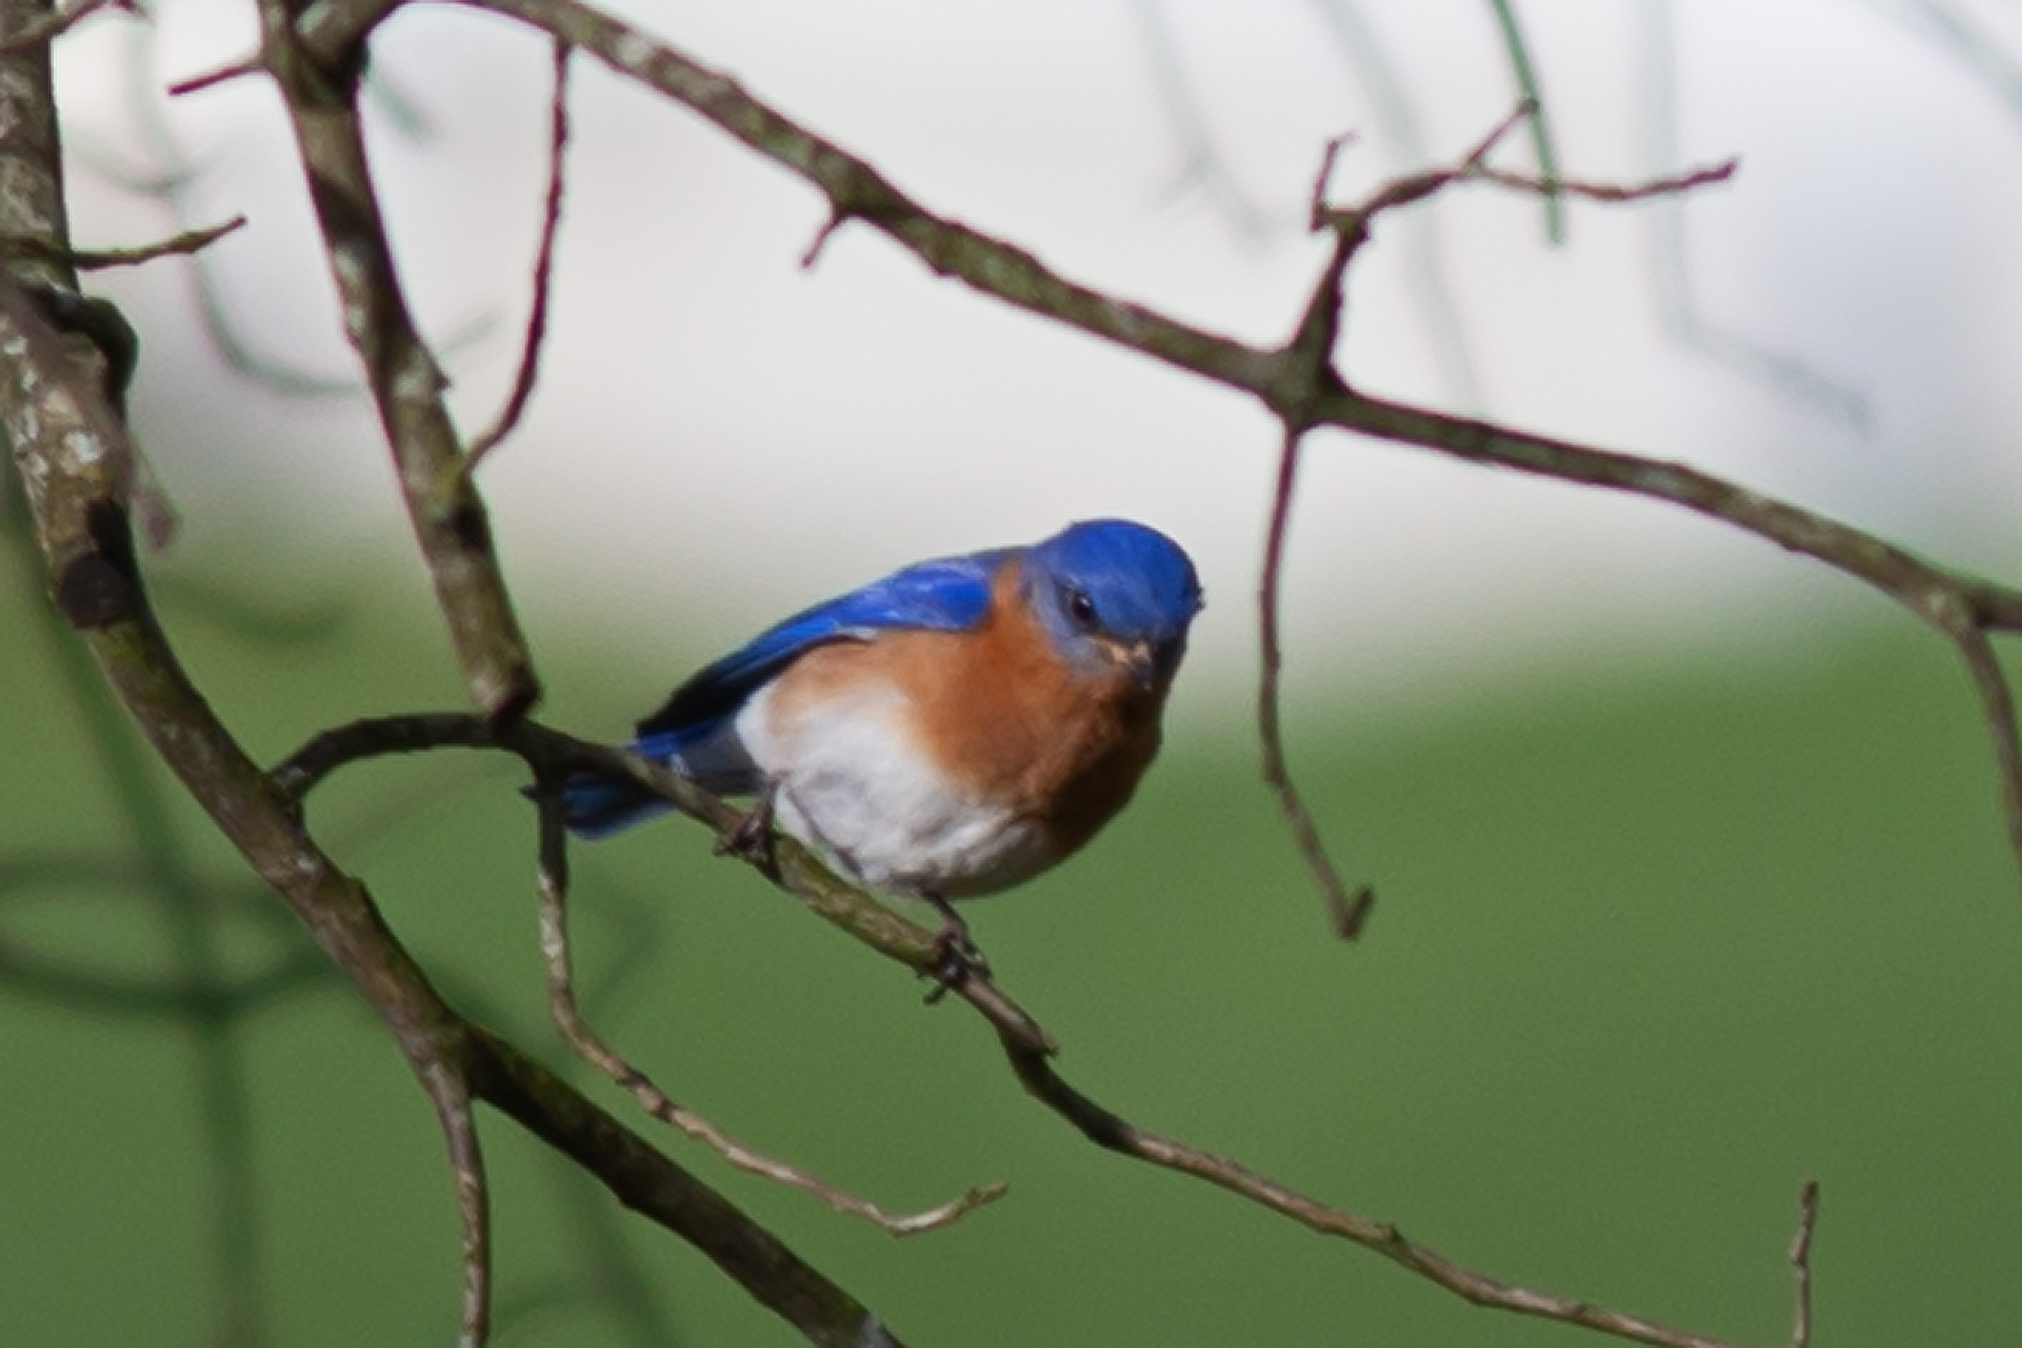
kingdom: Animalia
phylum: Chordata
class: Aves
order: Passeriformes
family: Turdidae
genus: Sialia
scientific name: Sialia sialis
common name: Eastern bluebird
